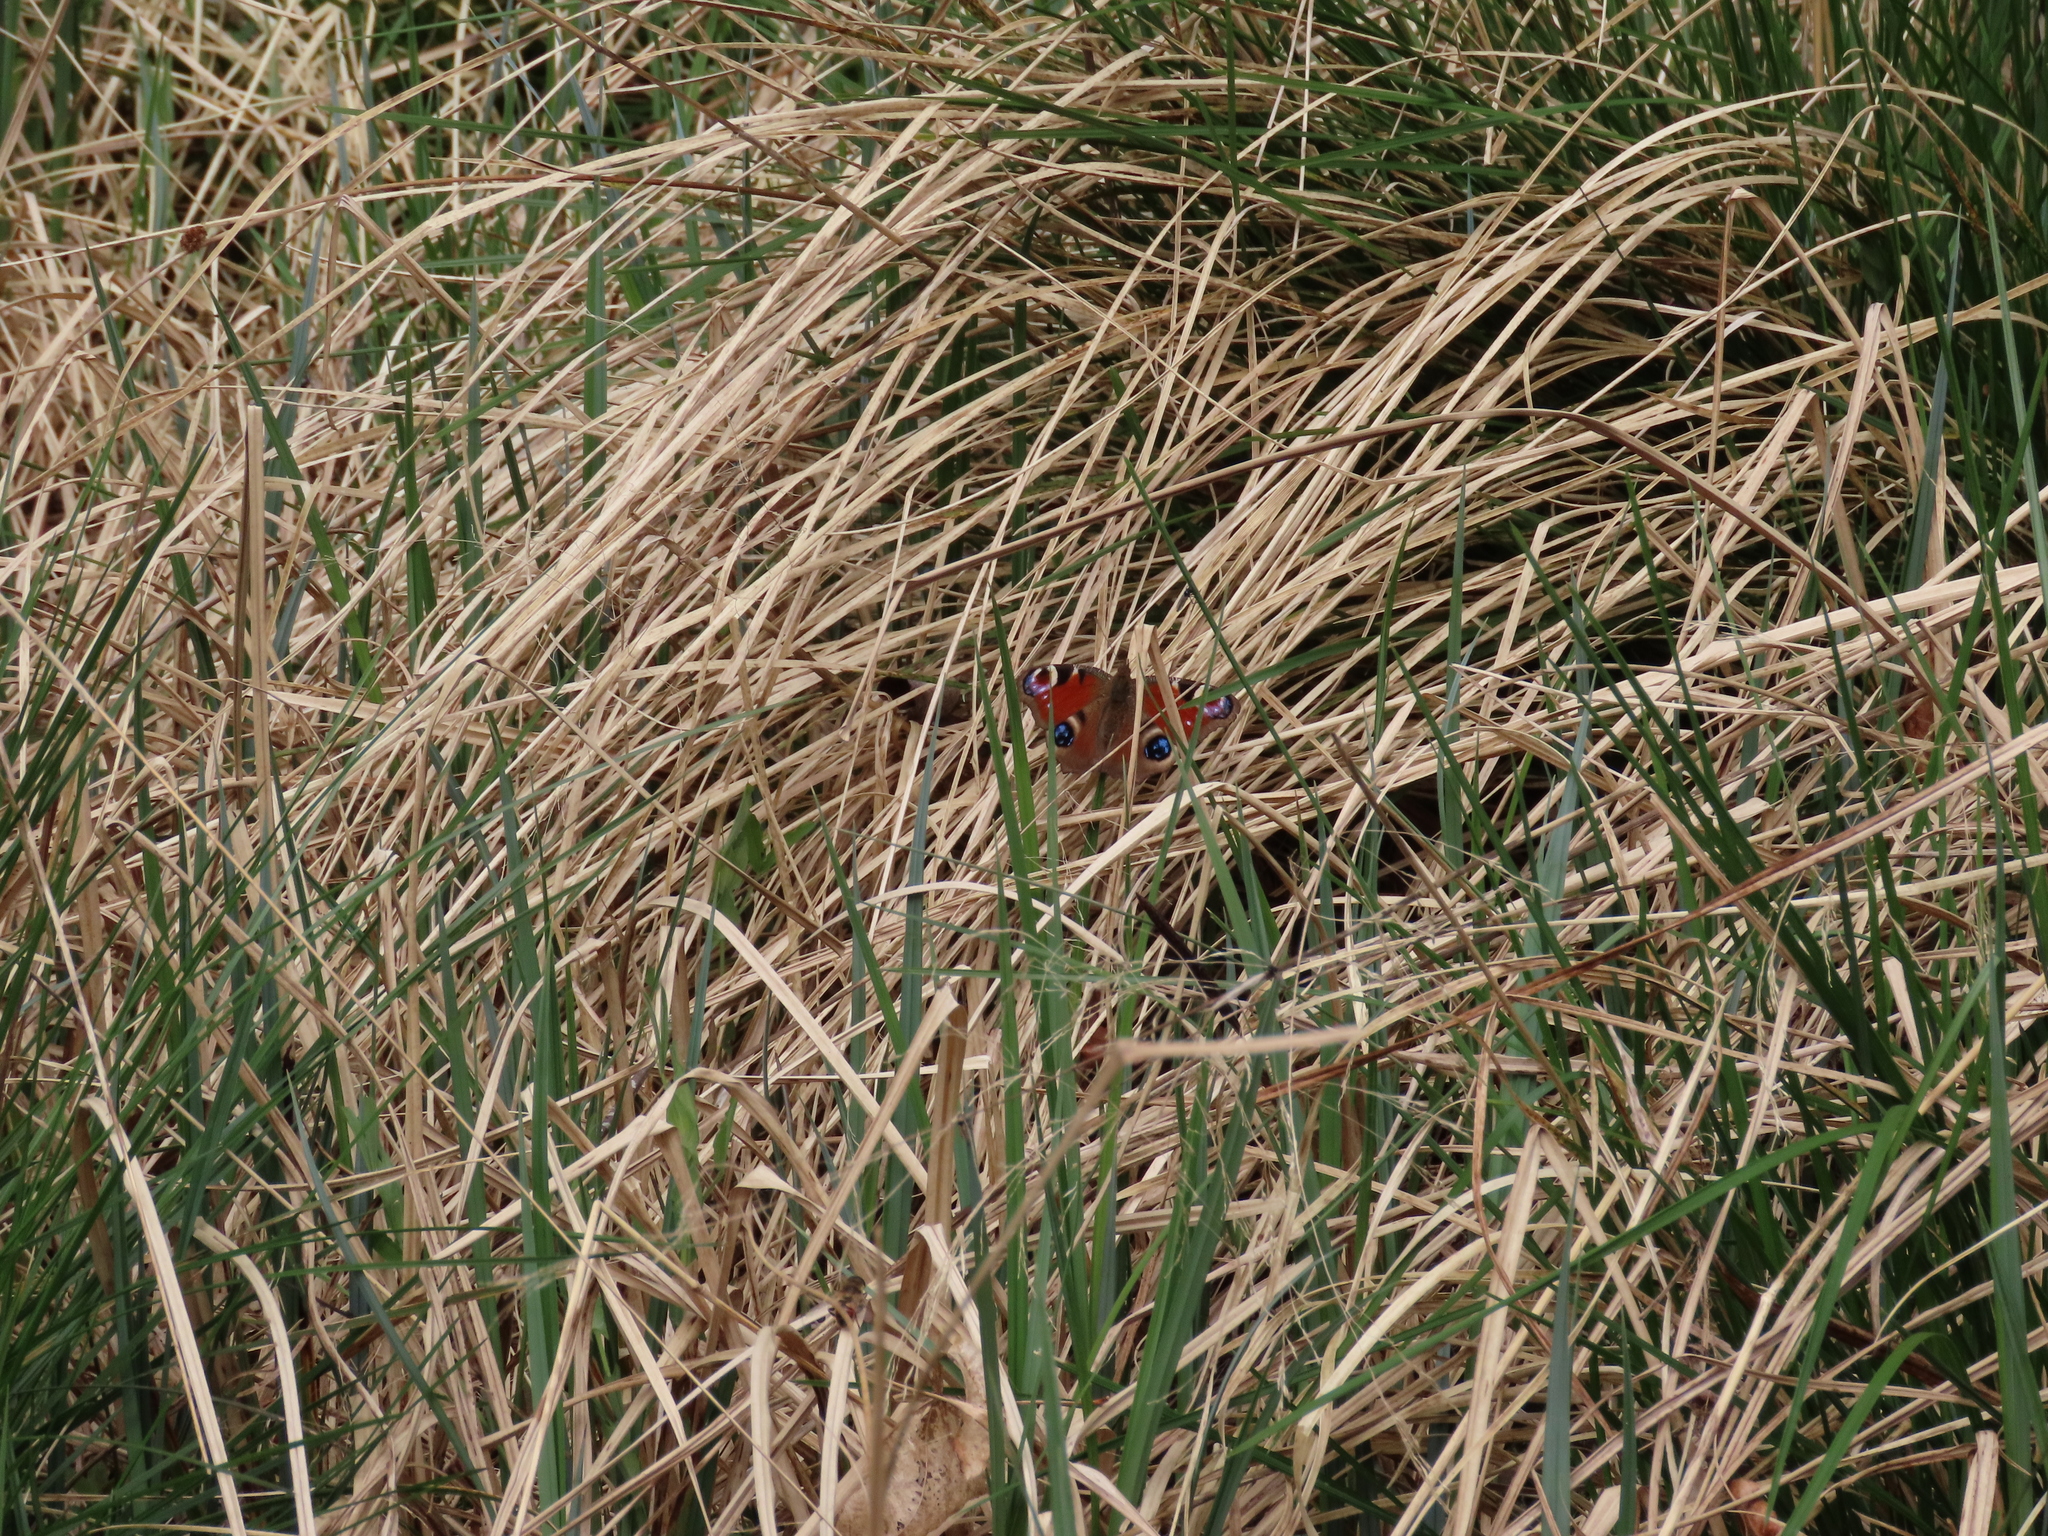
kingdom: Animalia
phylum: Arthropoda
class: Insecta
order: Lepidoptera
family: Nymphalidae
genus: Aglais
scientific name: Aglais io
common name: Peacock
